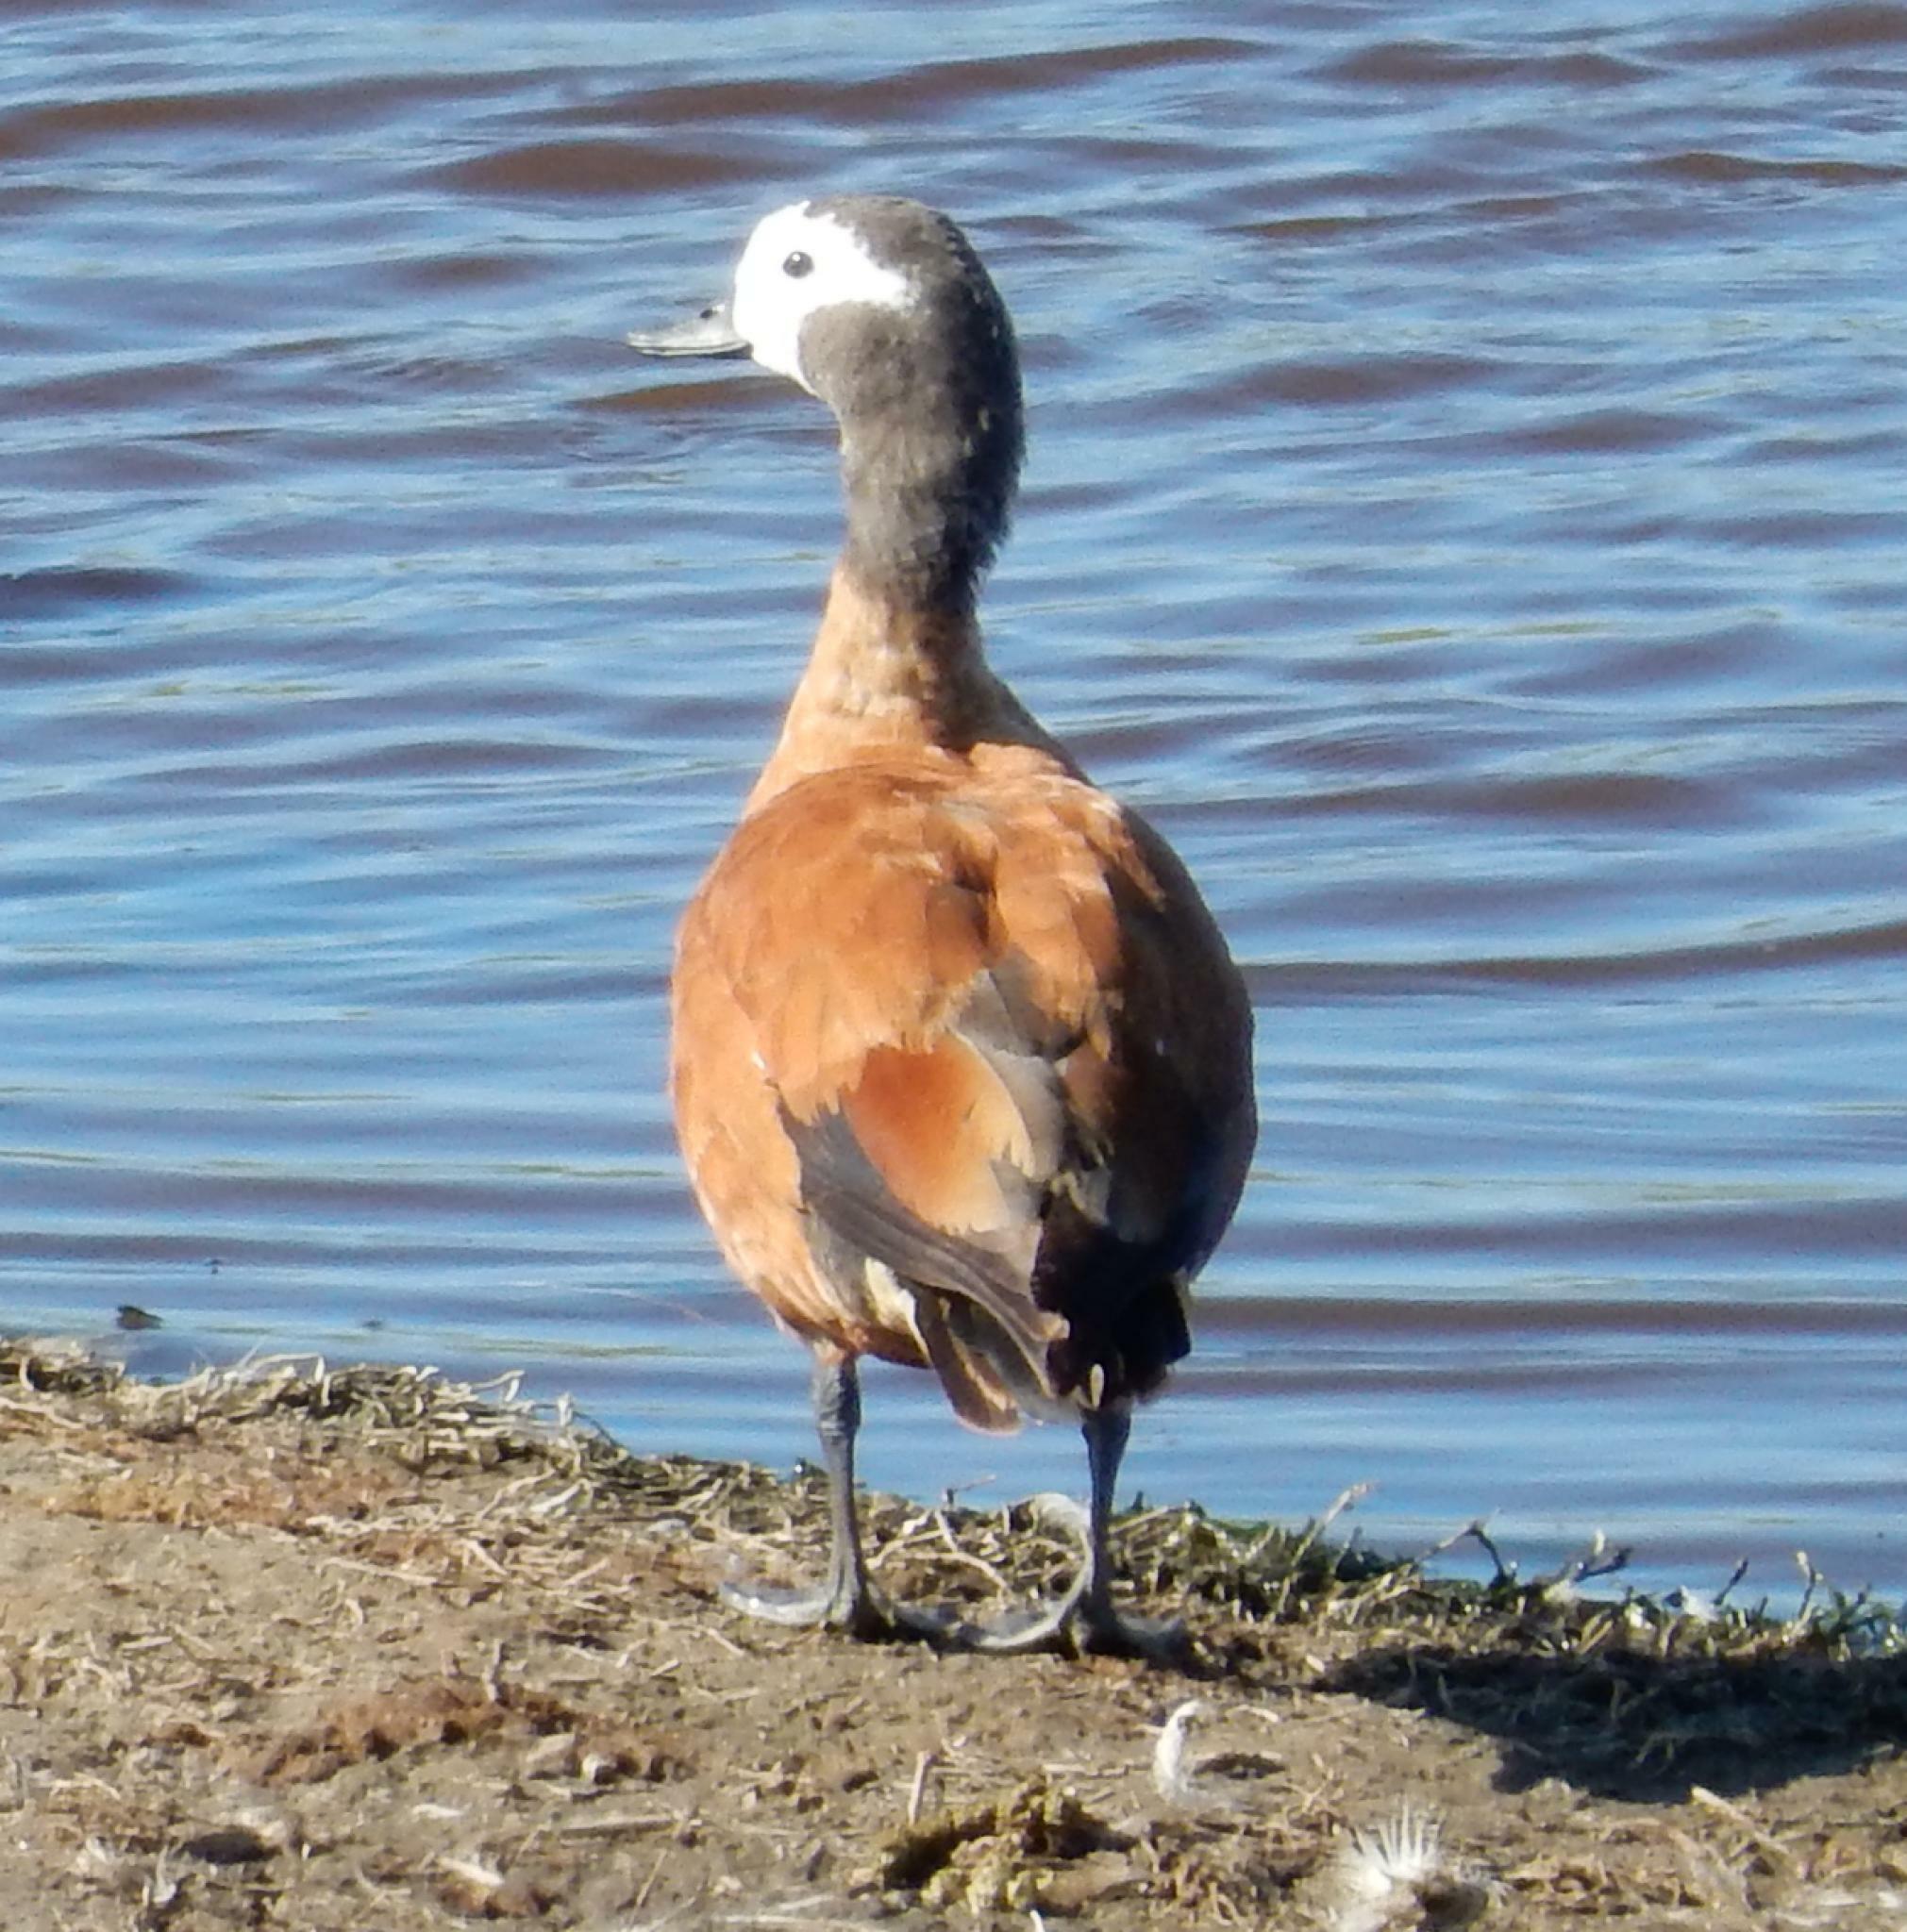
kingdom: Animalia
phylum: Chordata
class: Aves
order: Anseriformes
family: Anatidae
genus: Tadorna
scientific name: Tadorna cana
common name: South african shelduck
